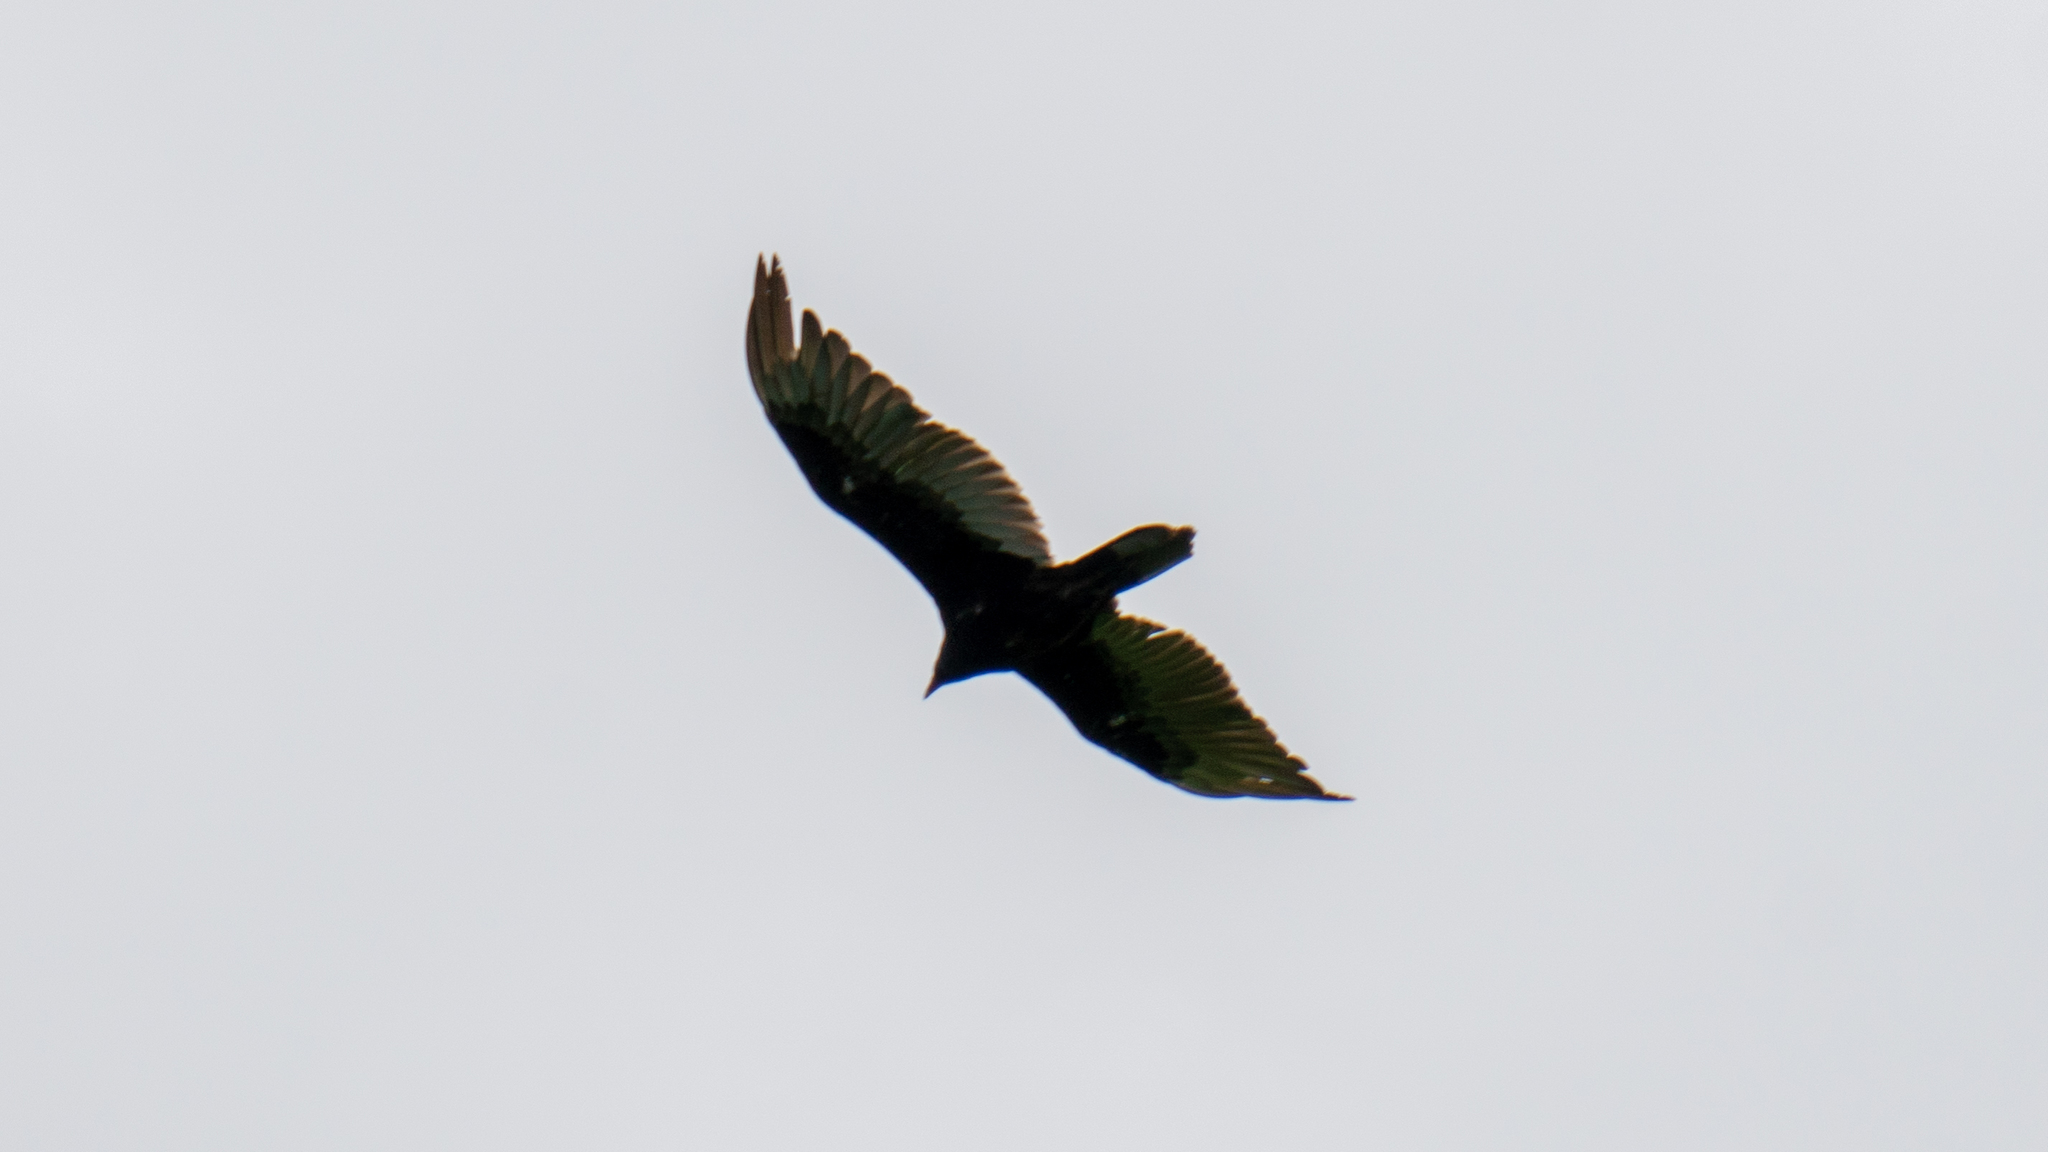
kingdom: Animalia
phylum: Chordata
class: Aves
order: Accipitriformes
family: Cathartidae
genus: Cathartes
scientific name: Cathartes aura
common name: Turkey vulture
